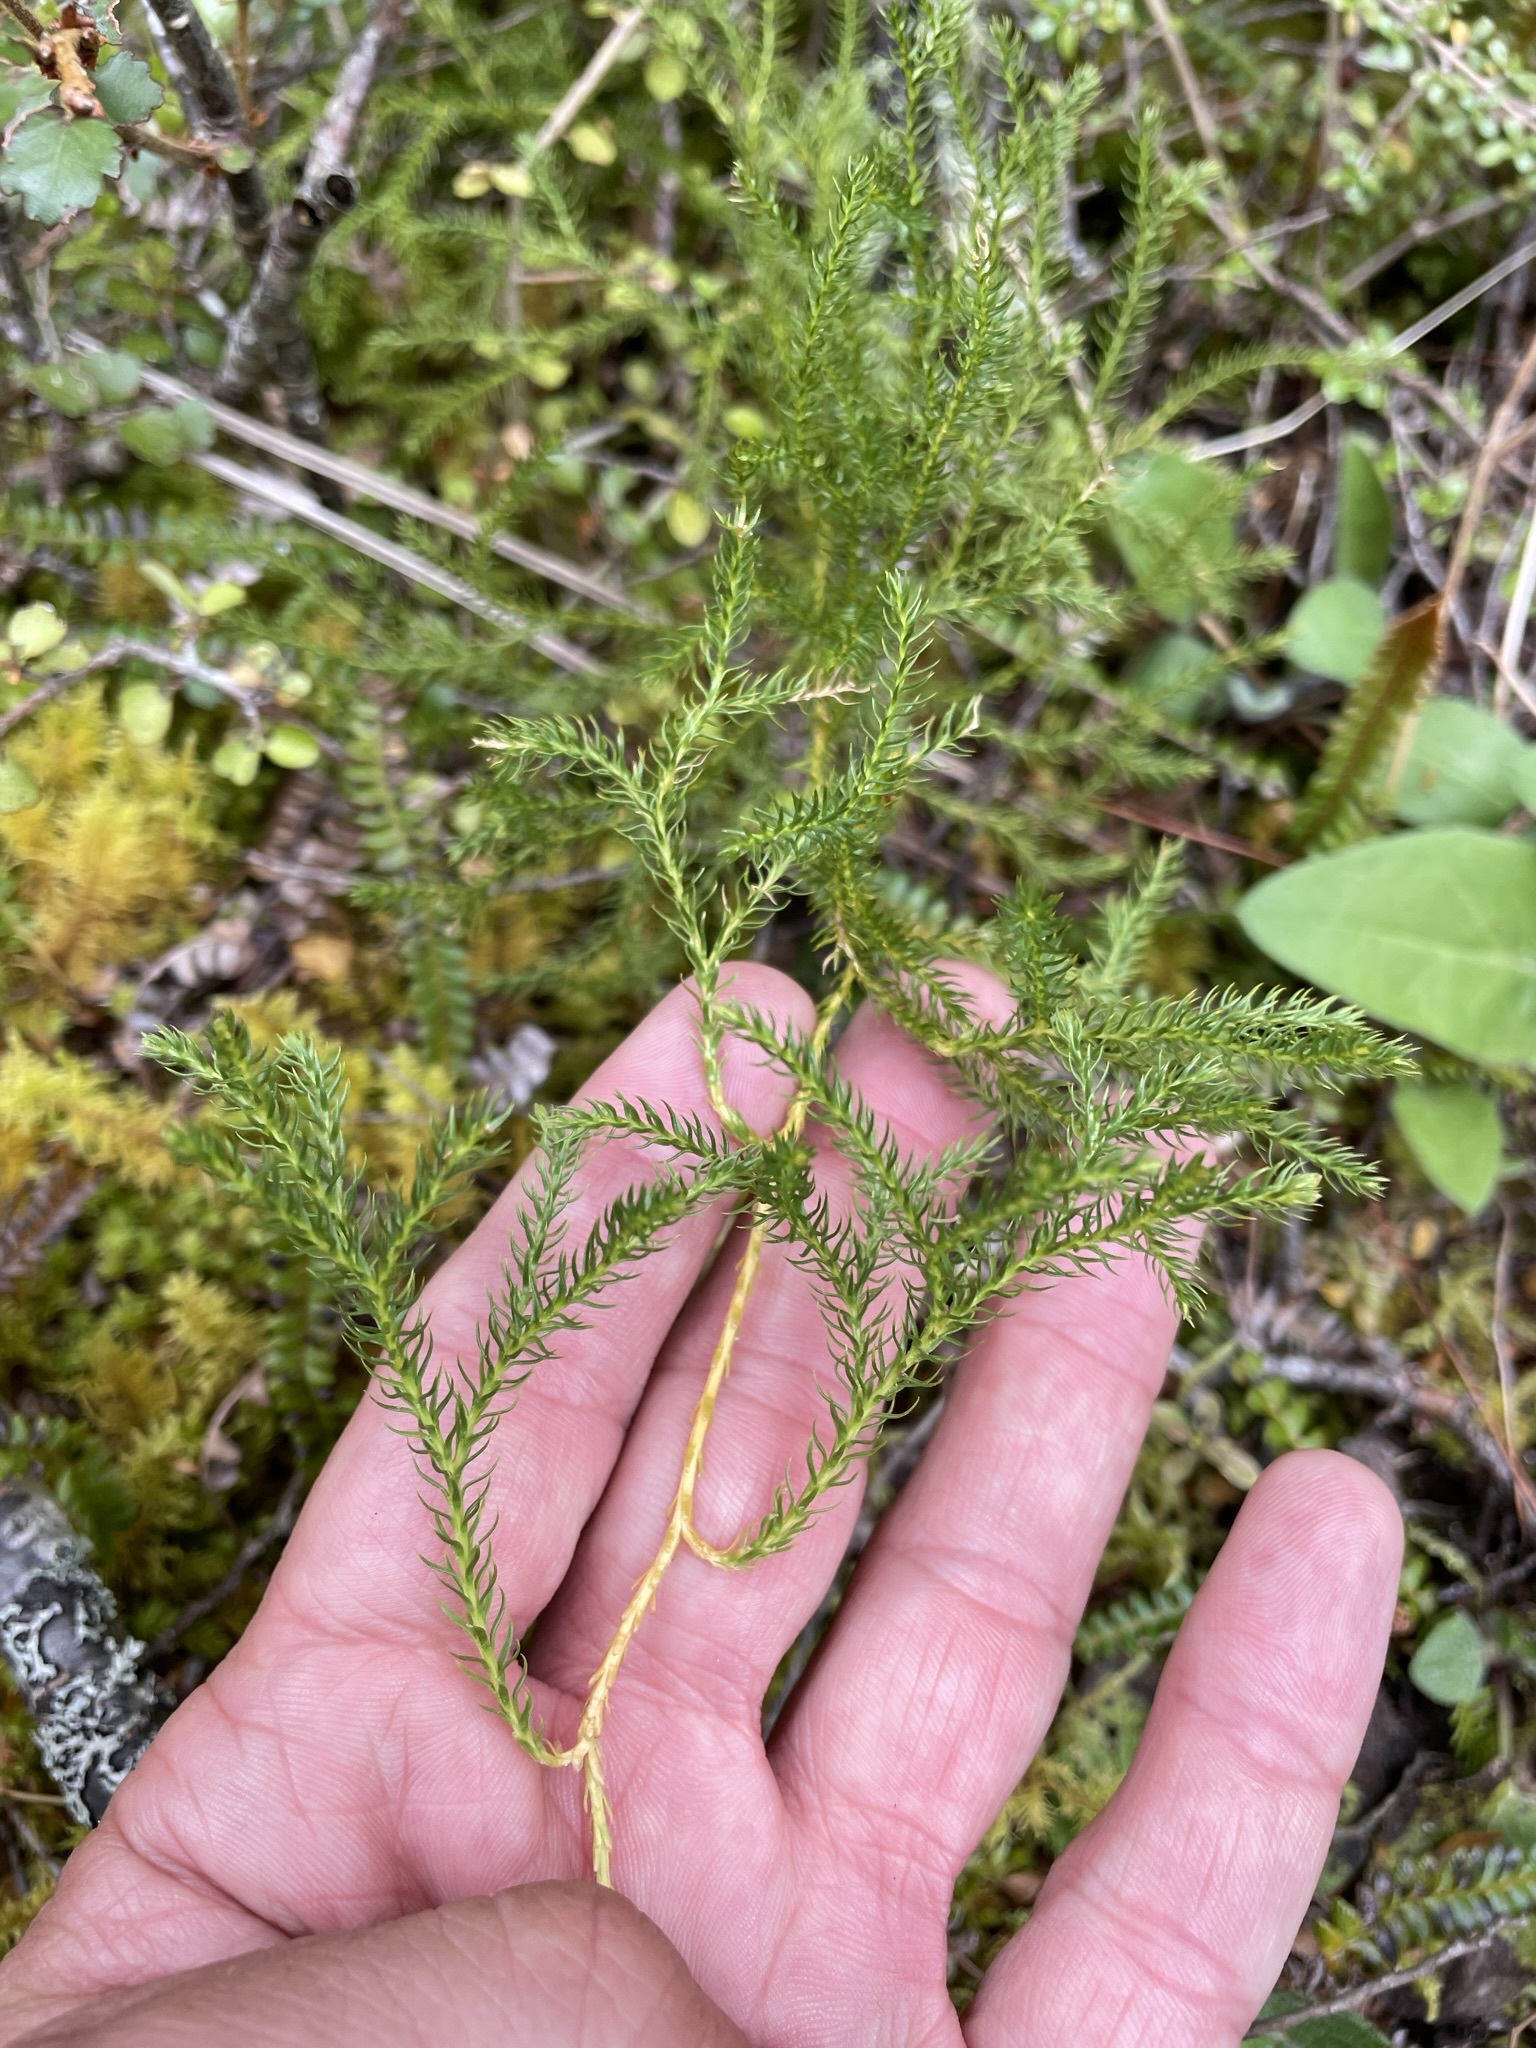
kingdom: Plantae
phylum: Tracheophyta
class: Lycopodiopsida
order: Lycopodiales
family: Lycopodiaceae
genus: Austrolycopodium
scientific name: Austrolycopodium fastigiatum
